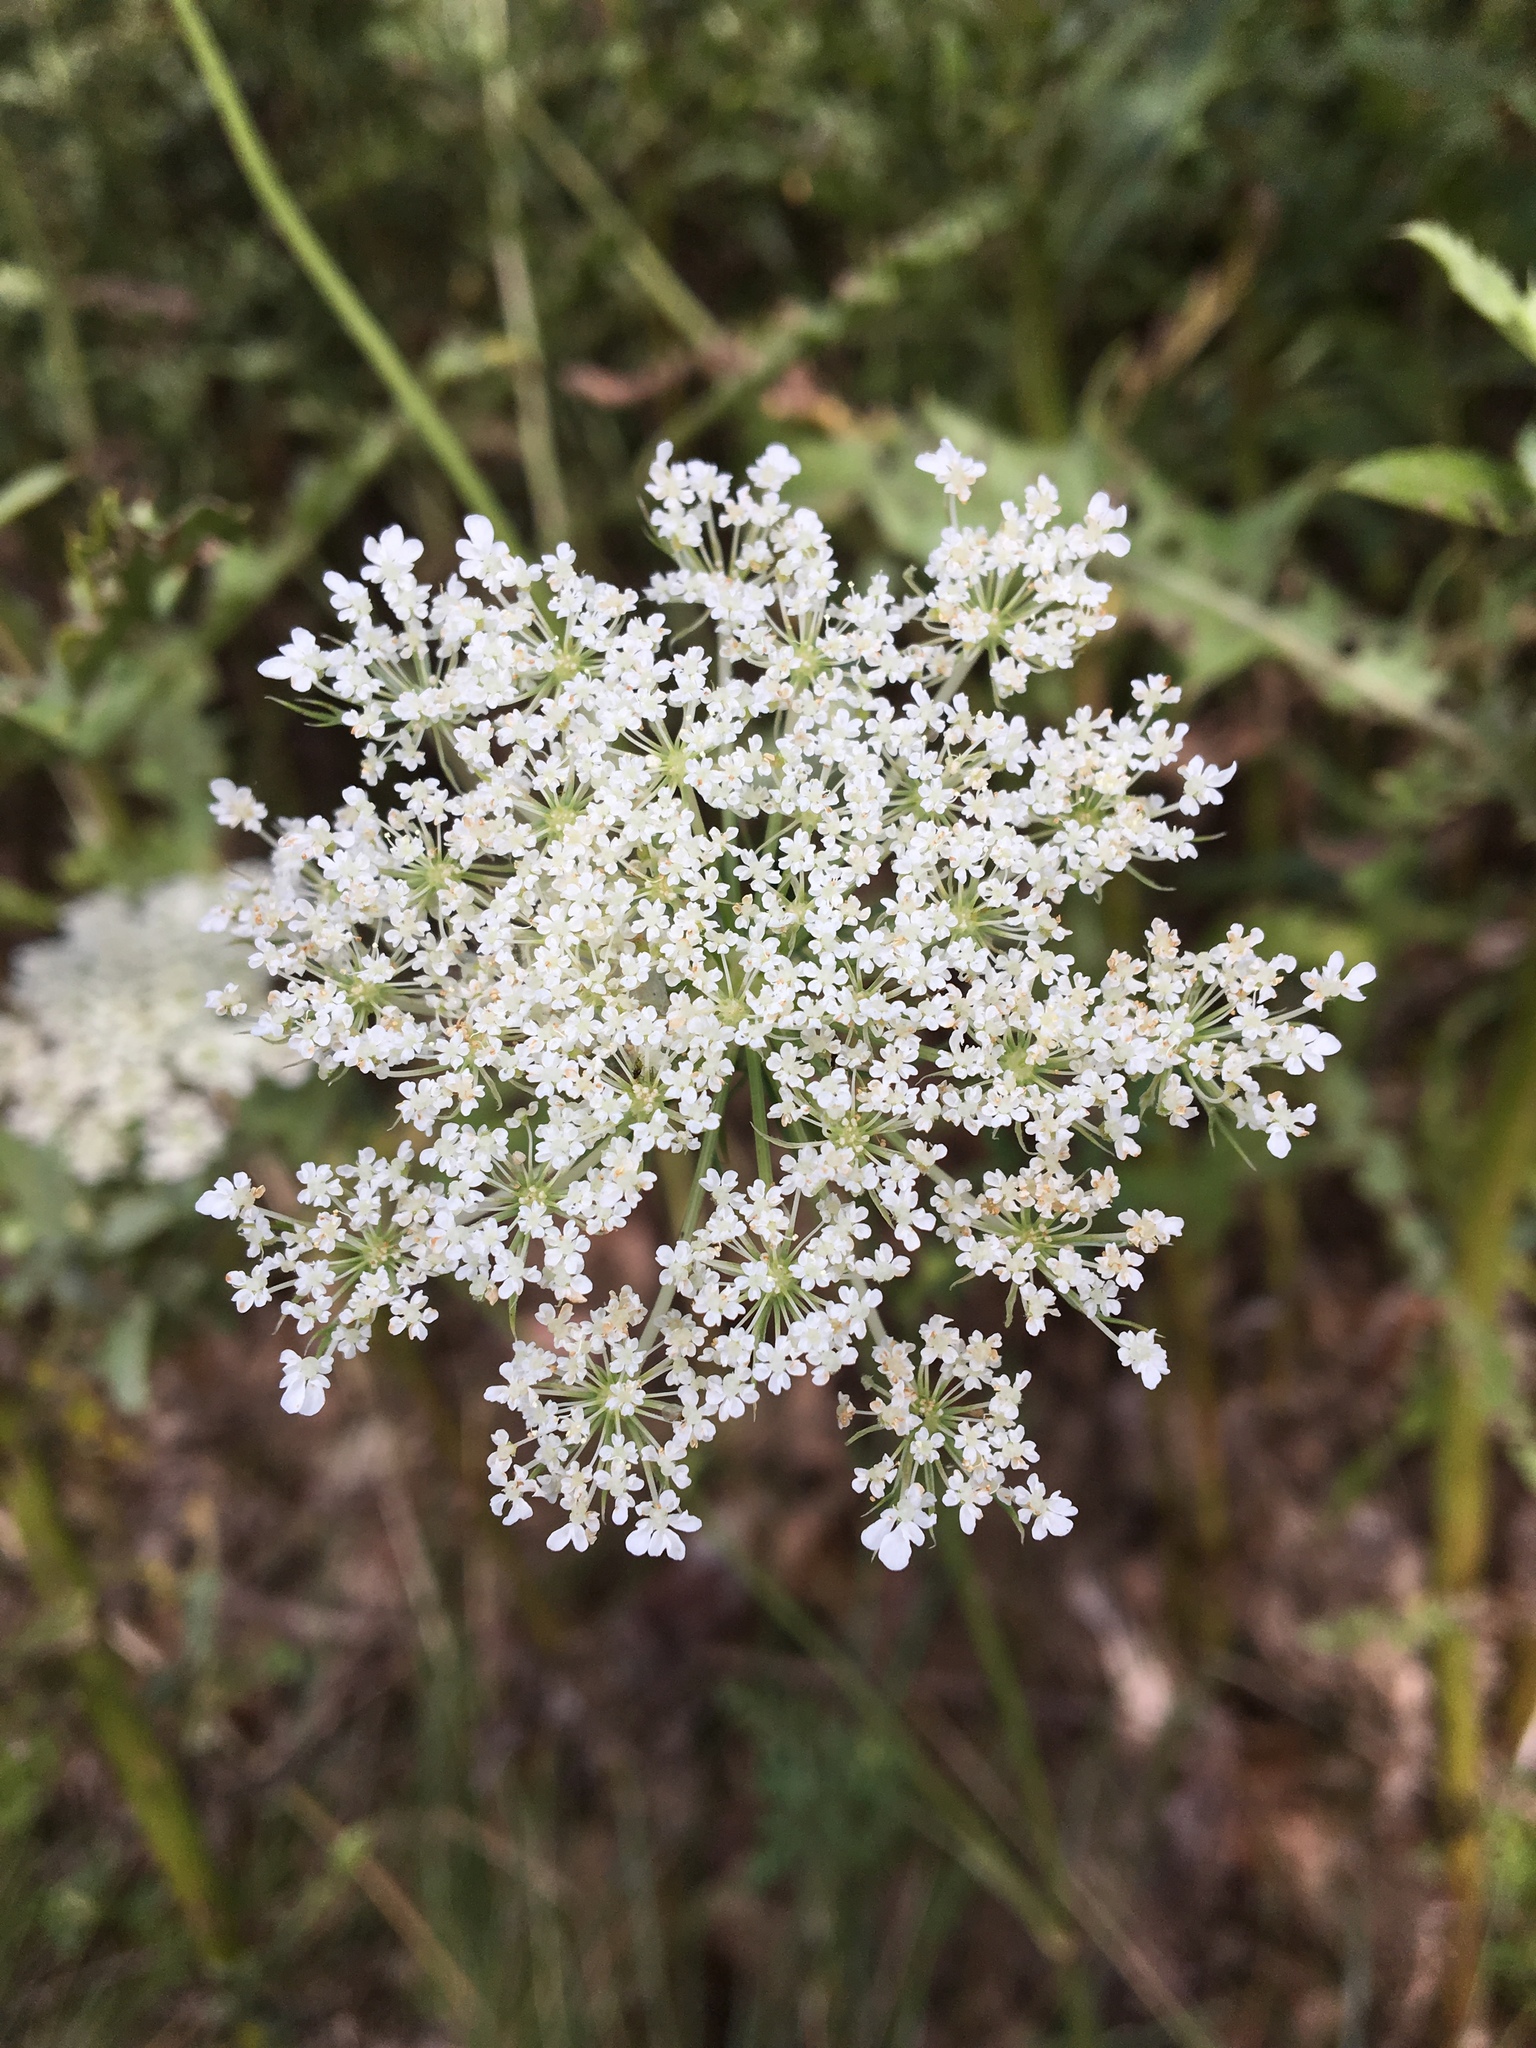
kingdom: Plantae
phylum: Tracheophyta
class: Magnoliopsida
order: Apiales
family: Apiaceae
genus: Daucus
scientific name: Daucus carota
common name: Wild carrot
